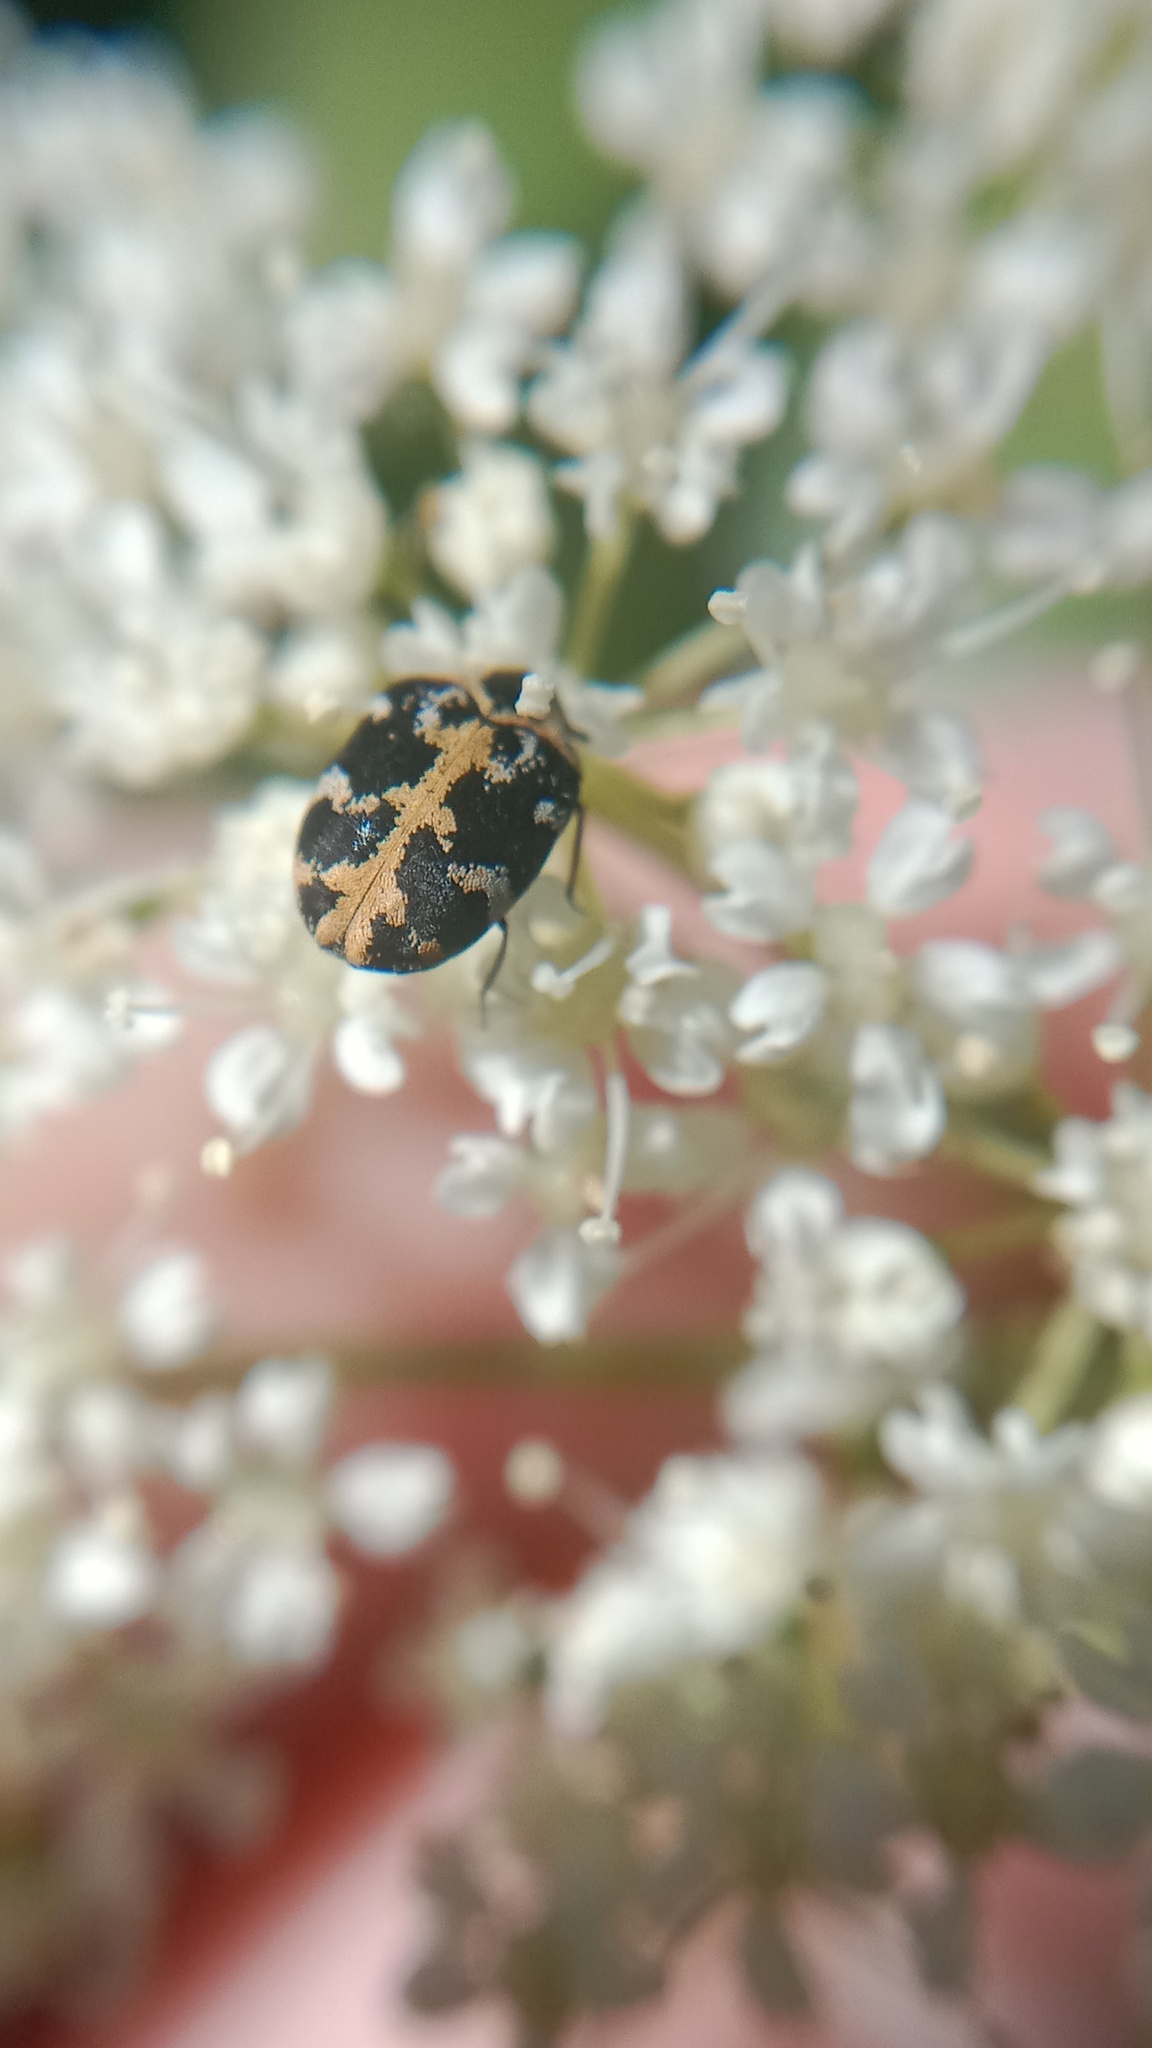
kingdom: Animalia
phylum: Arthropoda
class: Insecta
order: Coleoptera
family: Dermestidae
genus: Anthrenus
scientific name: Anthrenus scrophulariae
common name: Buffalo carpet beetle
